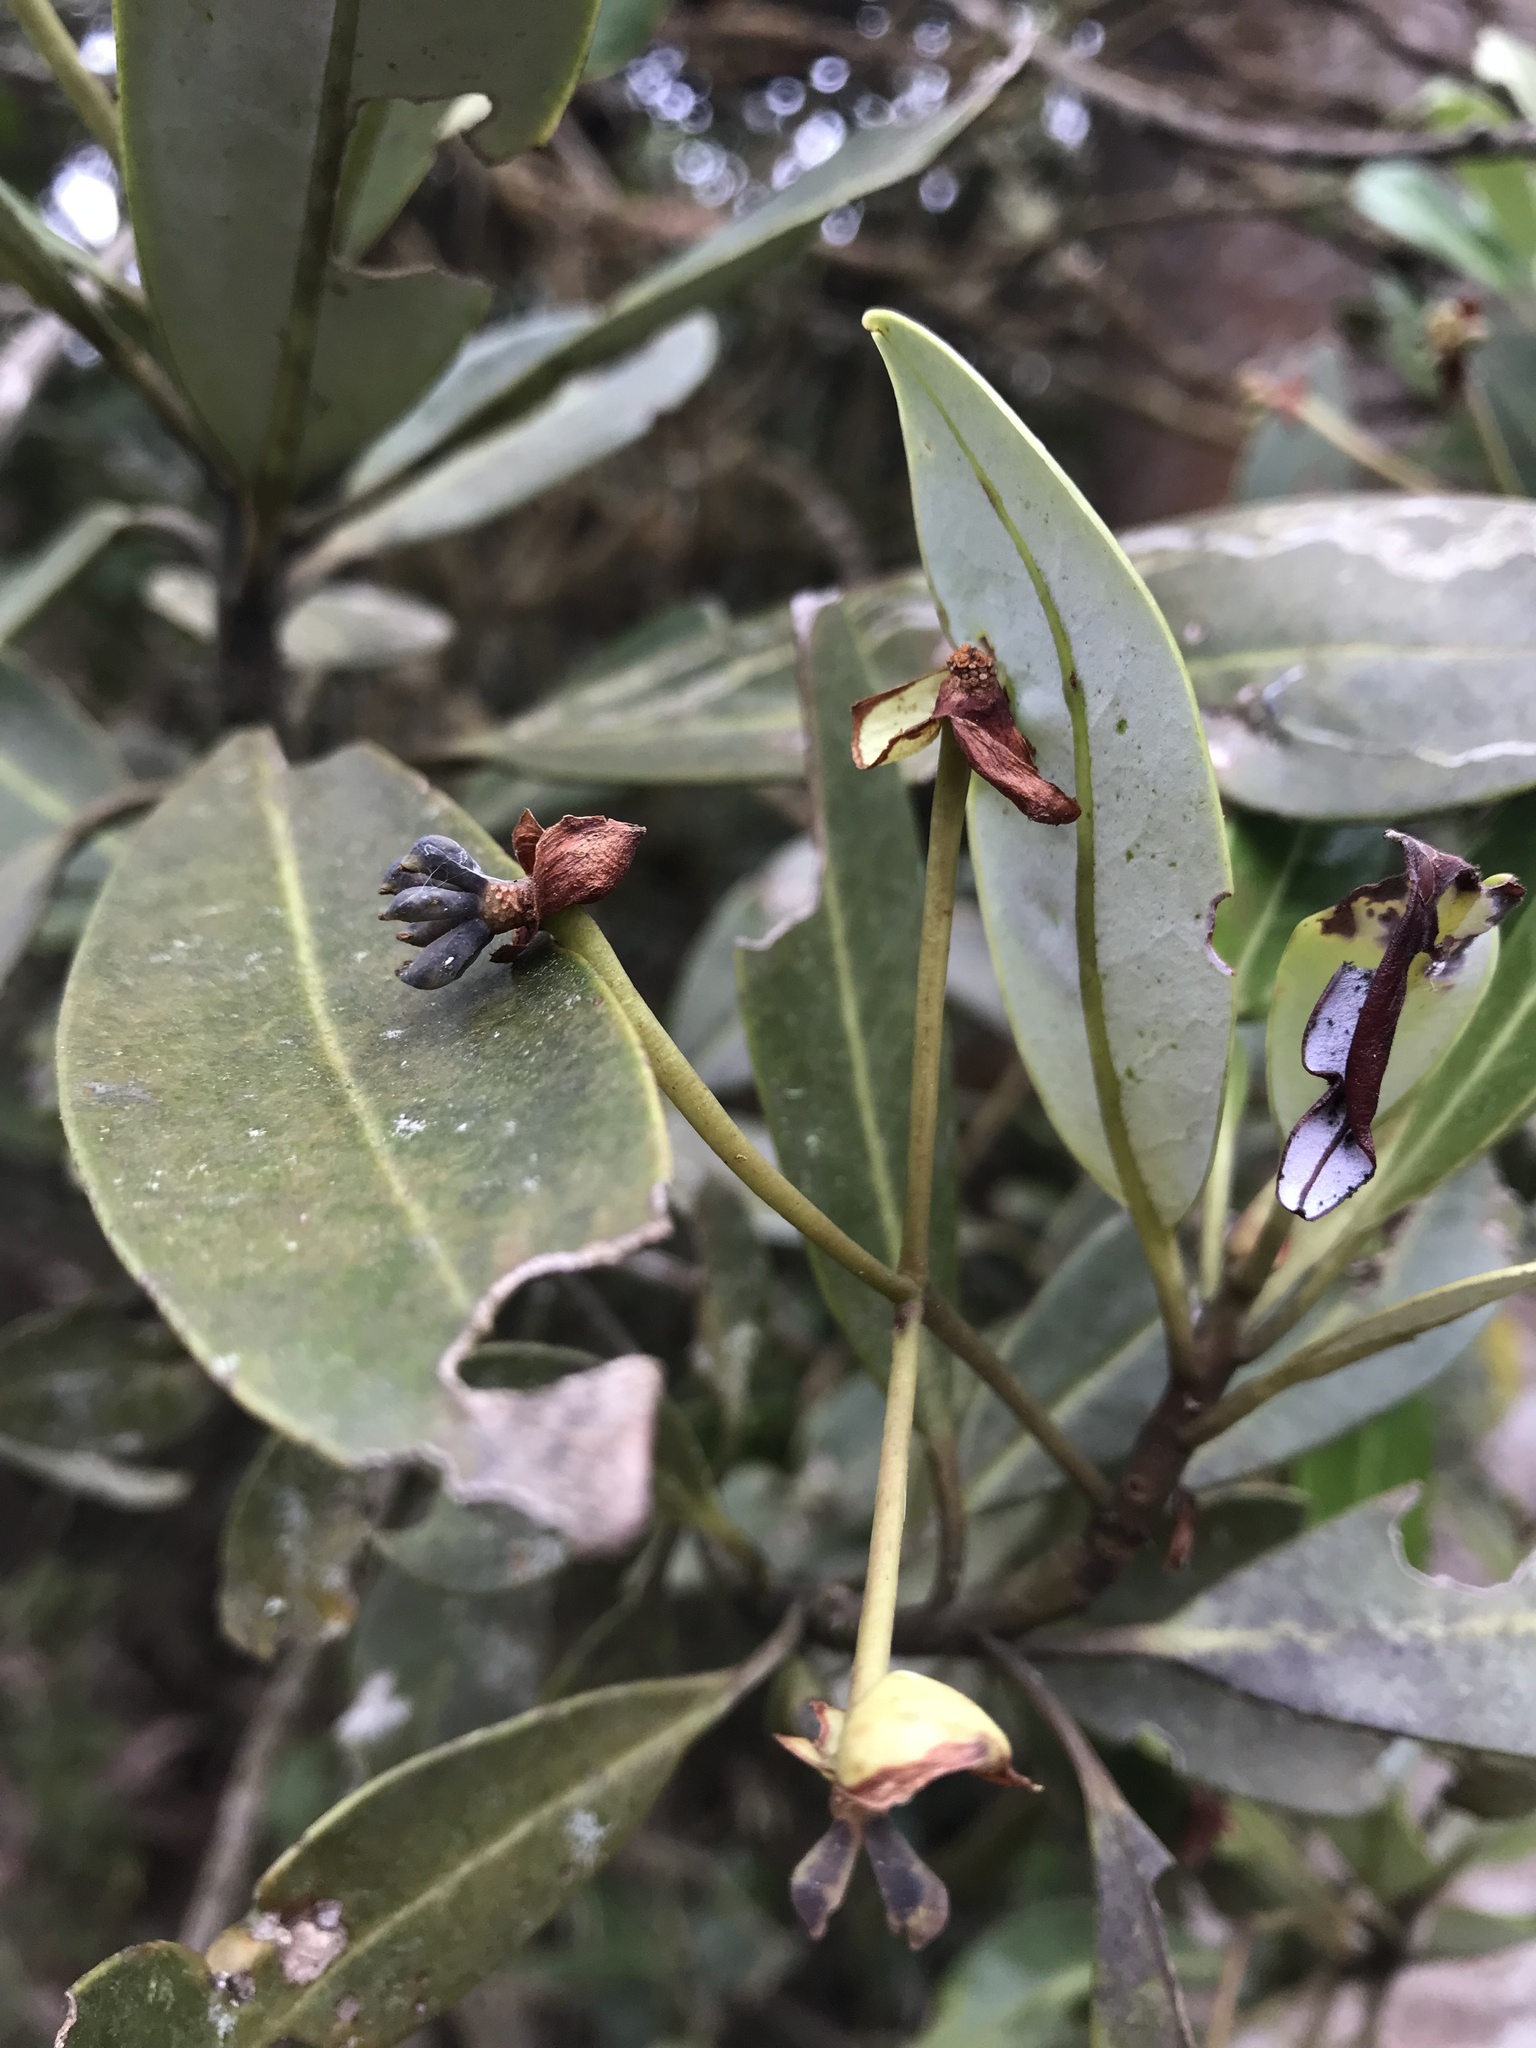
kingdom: Plantae
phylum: Tracheophyta
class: Magnoliopsida
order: Canellales
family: Winteraceae
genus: Drimys
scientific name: Drimys granadensis
